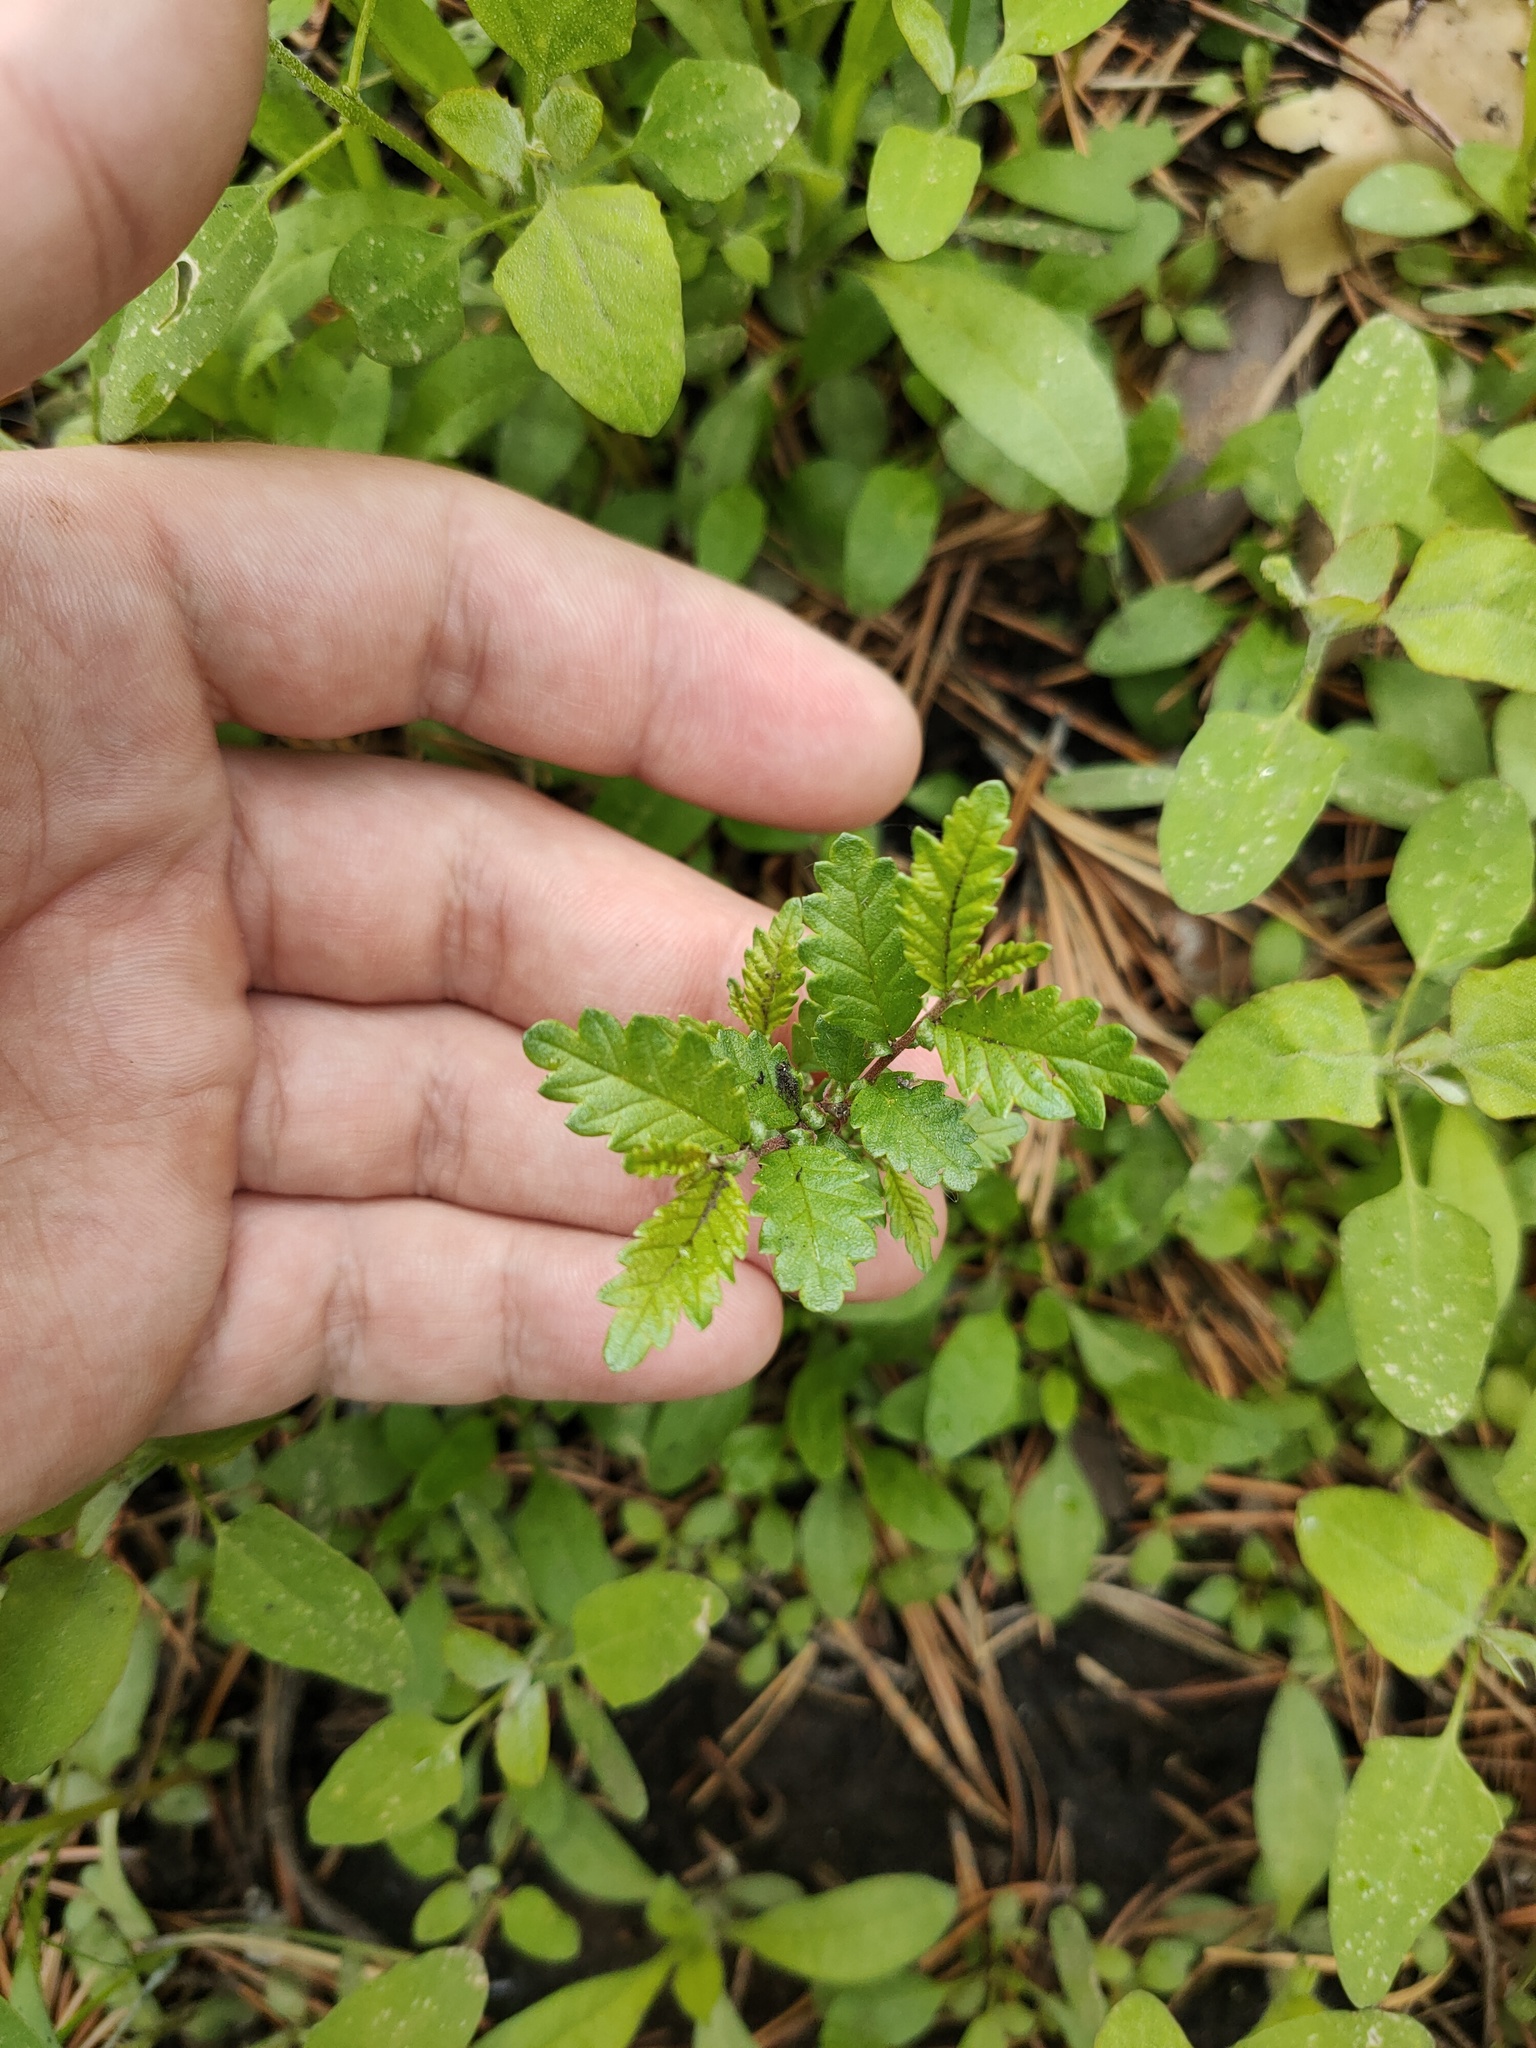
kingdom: Plantae
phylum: Tracheophyta
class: Magnoliopsida
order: Rosales
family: Ulmaceae
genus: Ulmus
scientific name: Ulmus pumila
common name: Siberian elm
